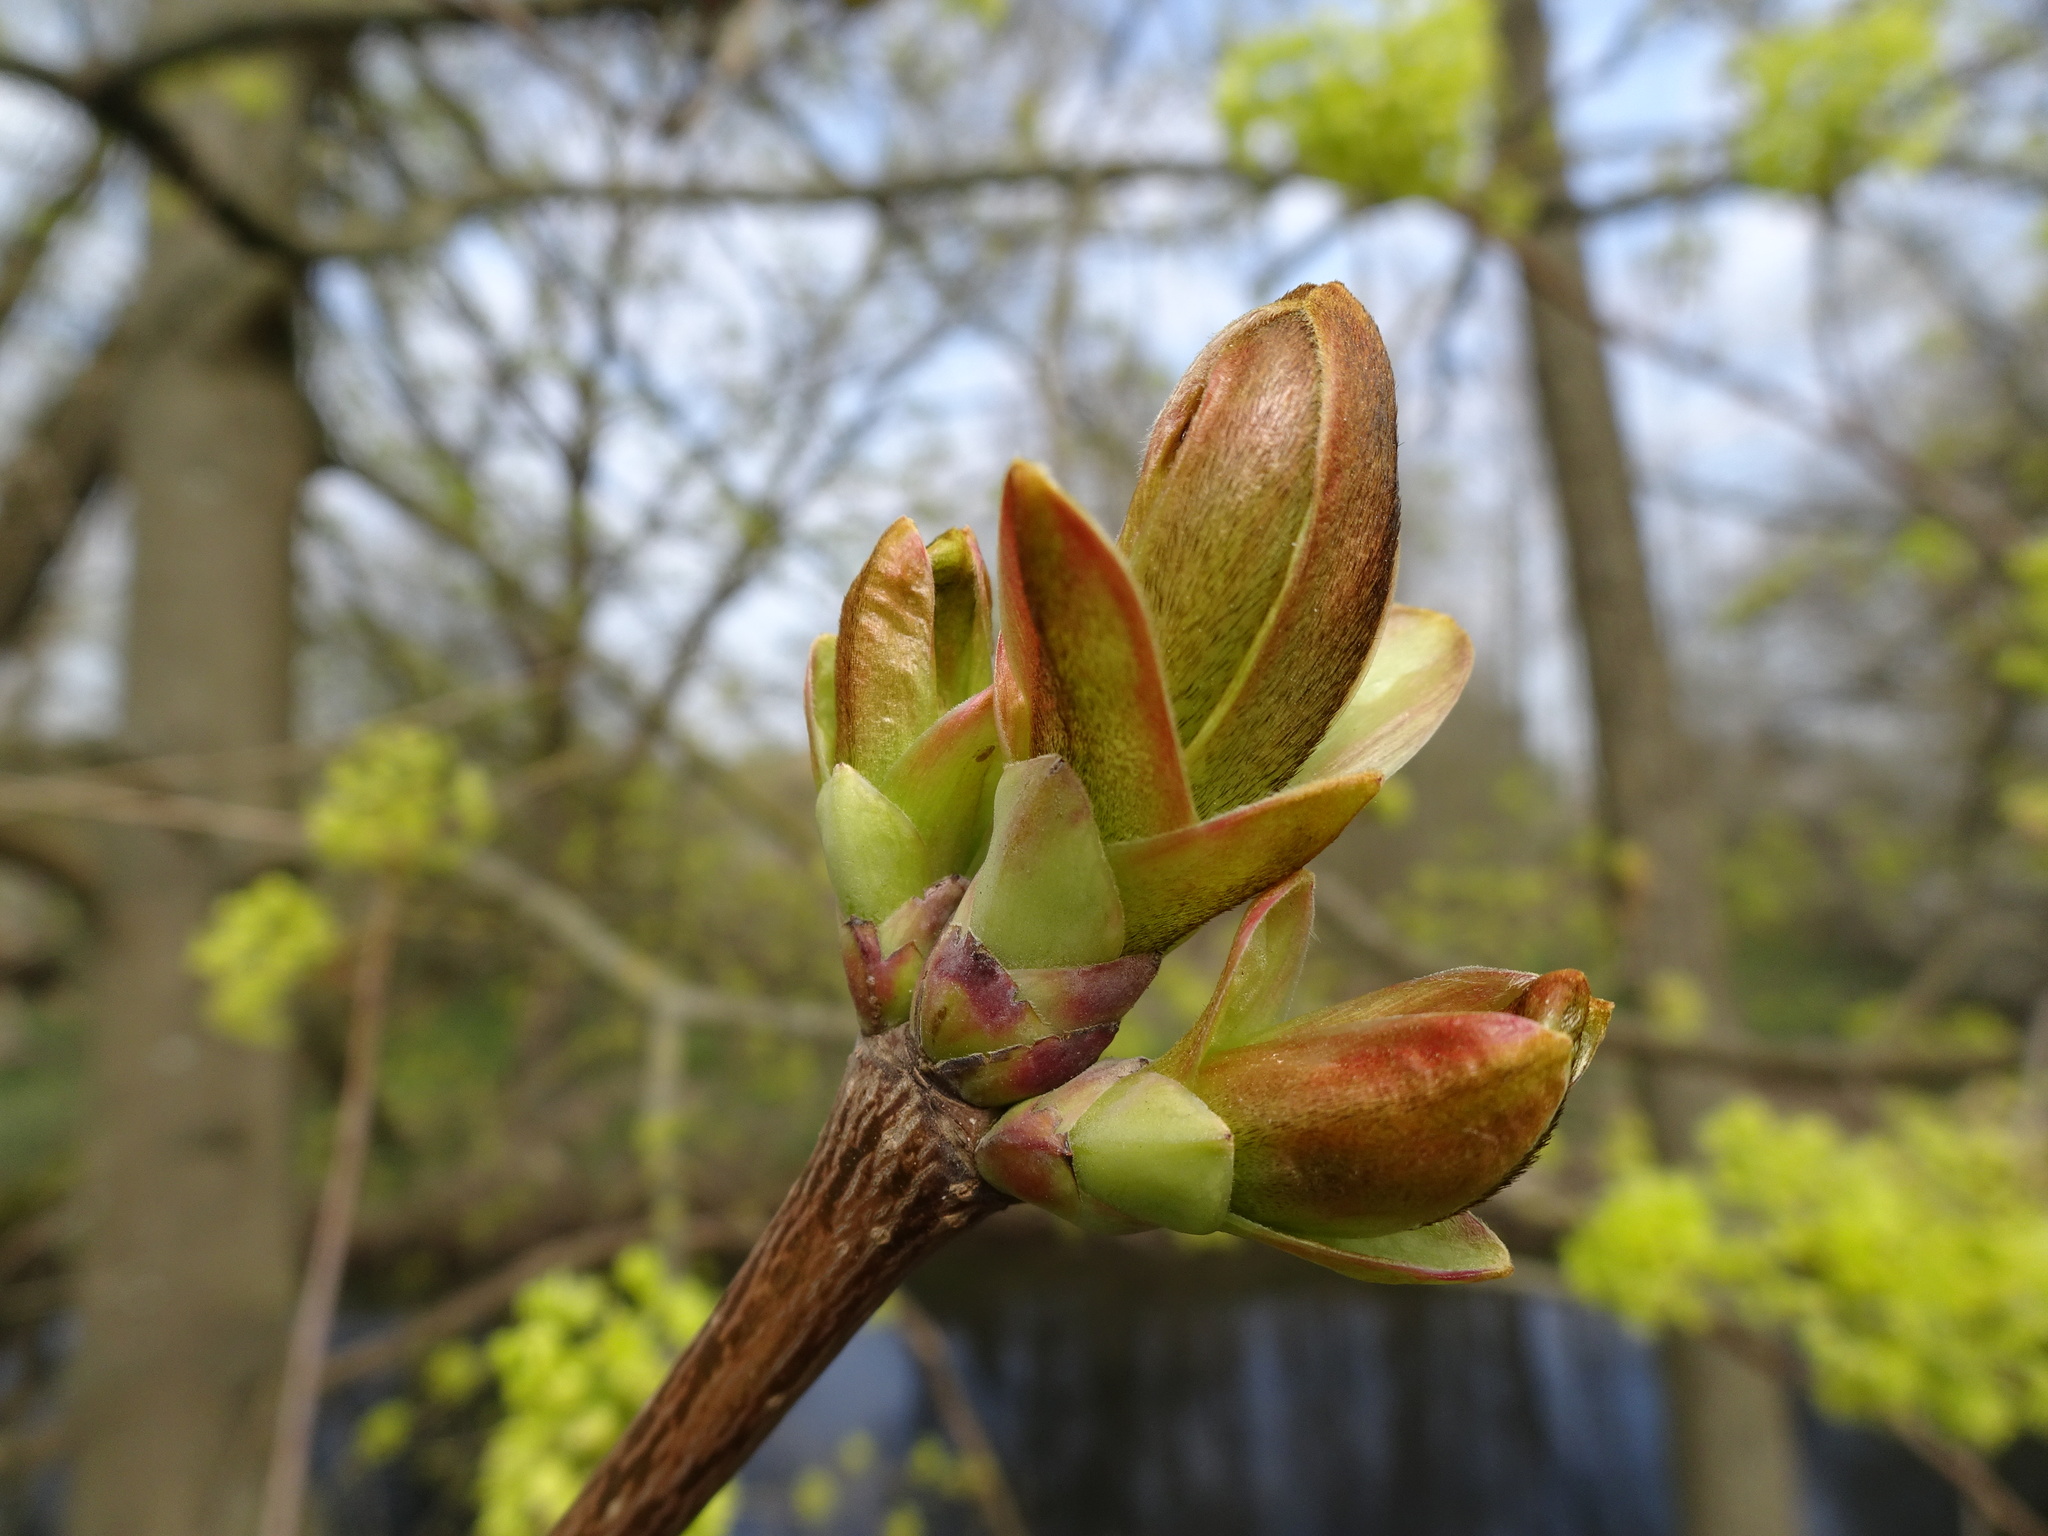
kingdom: Plantae
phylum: Tracheophyta
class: Magnoliopsida
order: Sapindales
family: Sapindaceae
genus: Acer
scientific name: Acer platanoides
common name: Norway maple
